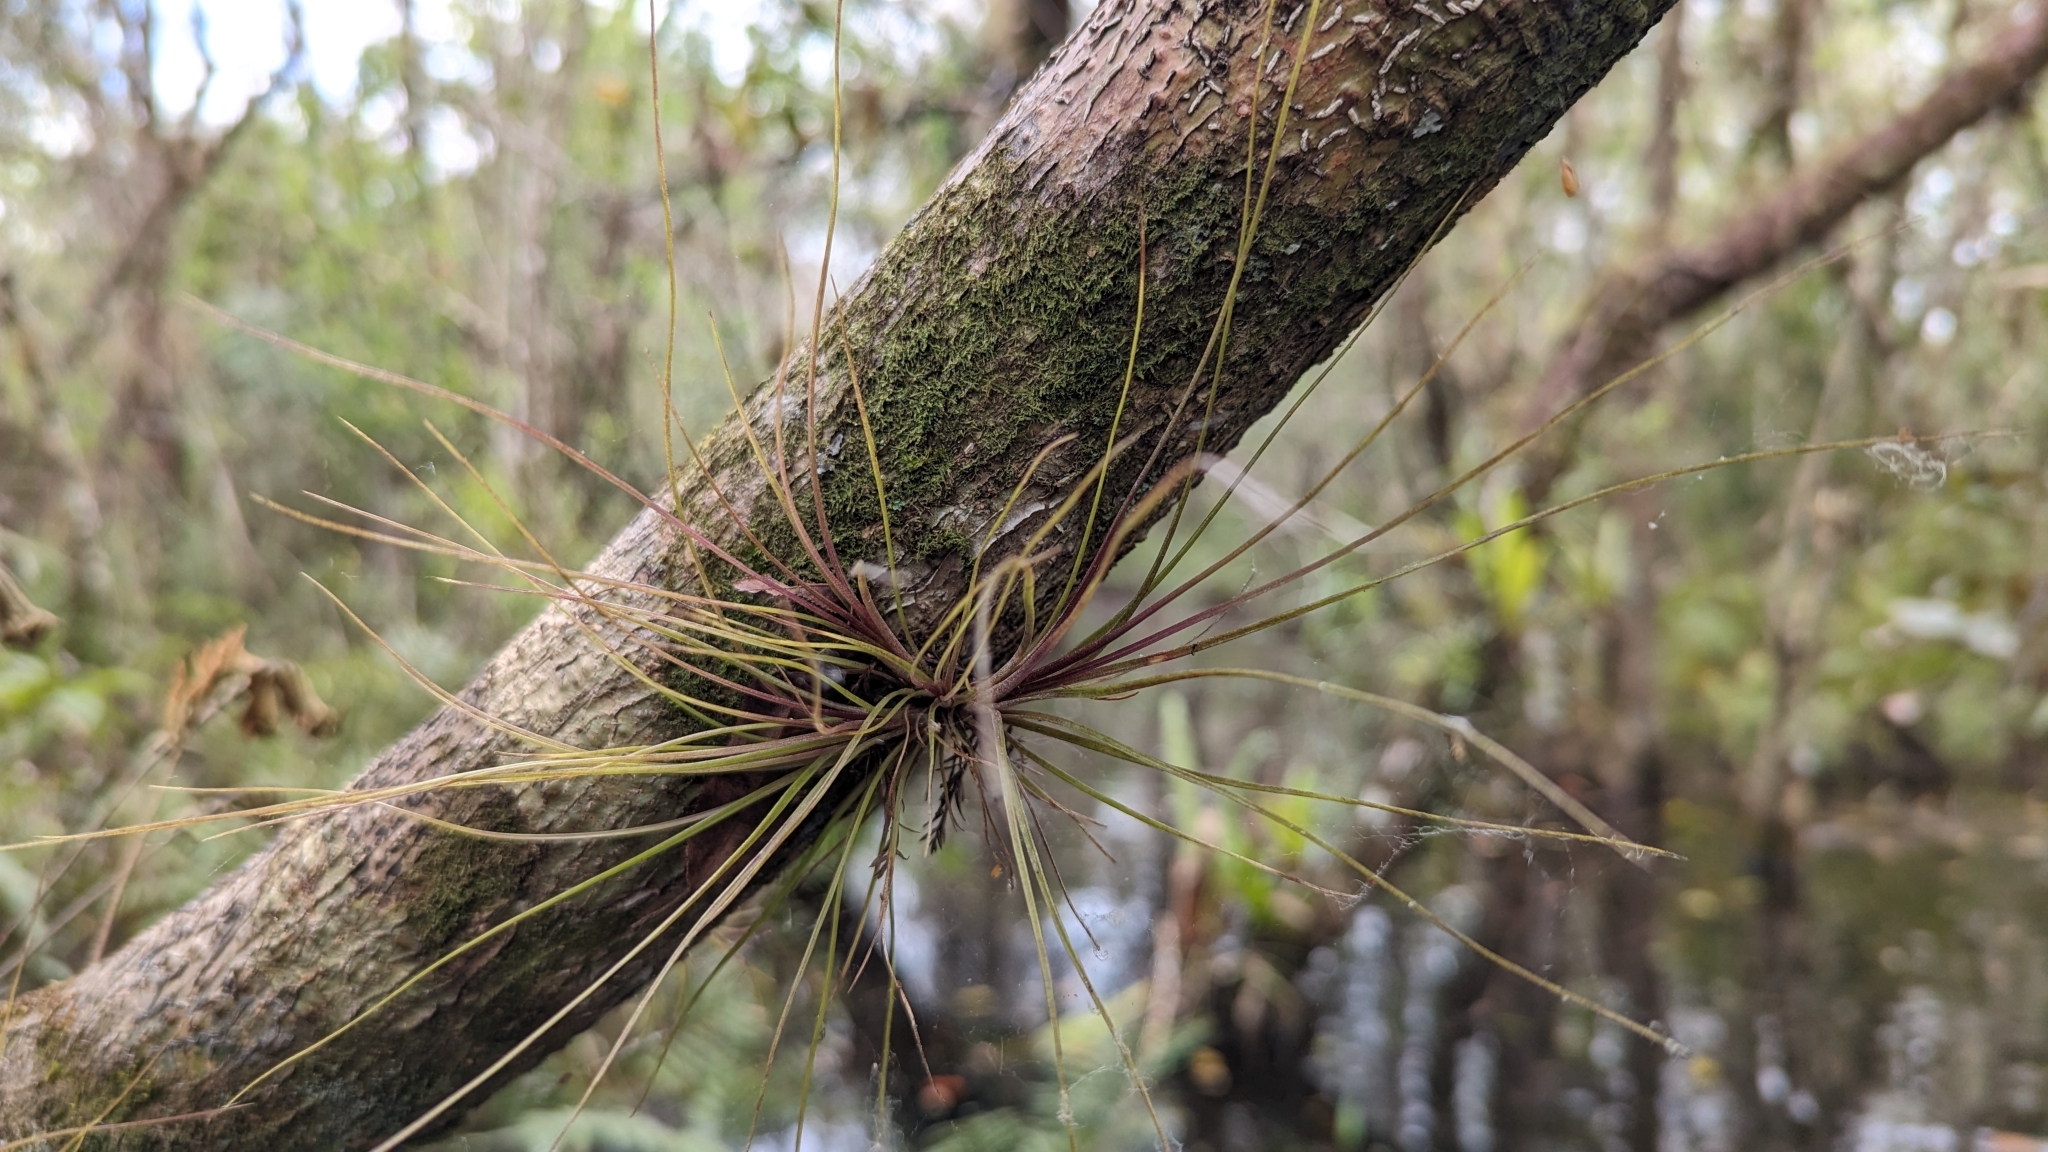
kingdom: Plantae
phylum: Tracheophyta
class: Liliopsida
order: Poales
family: Bromeliaceae
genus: Tillandsia
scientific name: Tillandsia setacea
